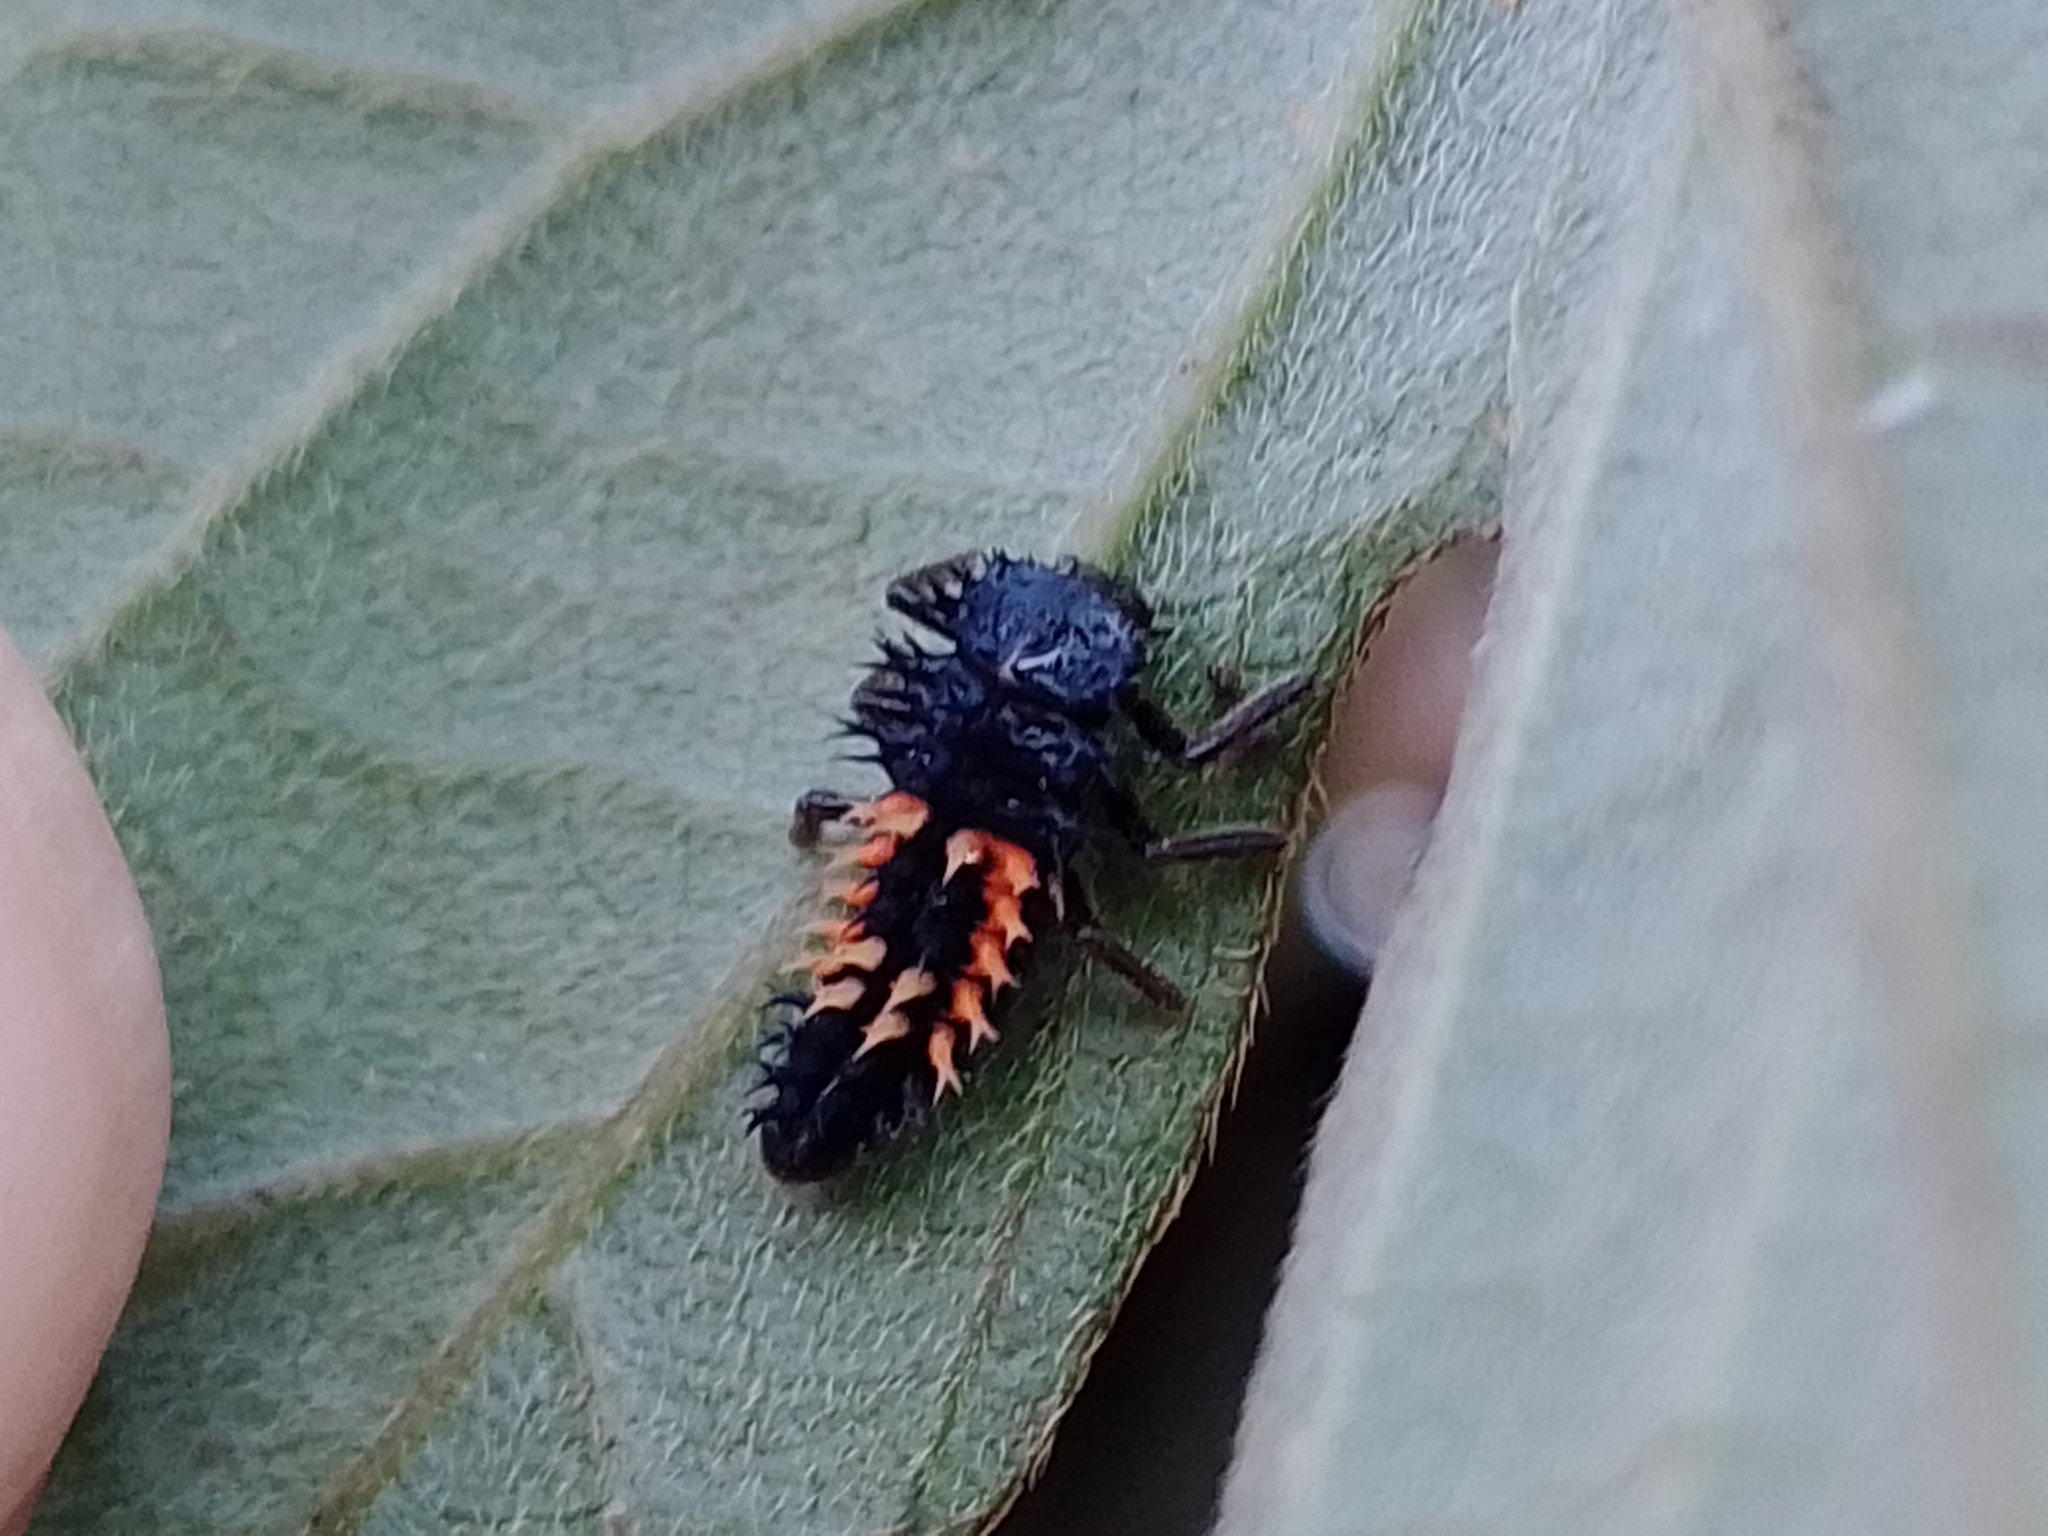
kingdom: Animalia
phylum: Arthropoda
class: Insecta
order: Coleoptera
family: Coccinellidae
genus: Harmonia
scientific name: Harmonia axyridis
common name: Harlequin ladybird
